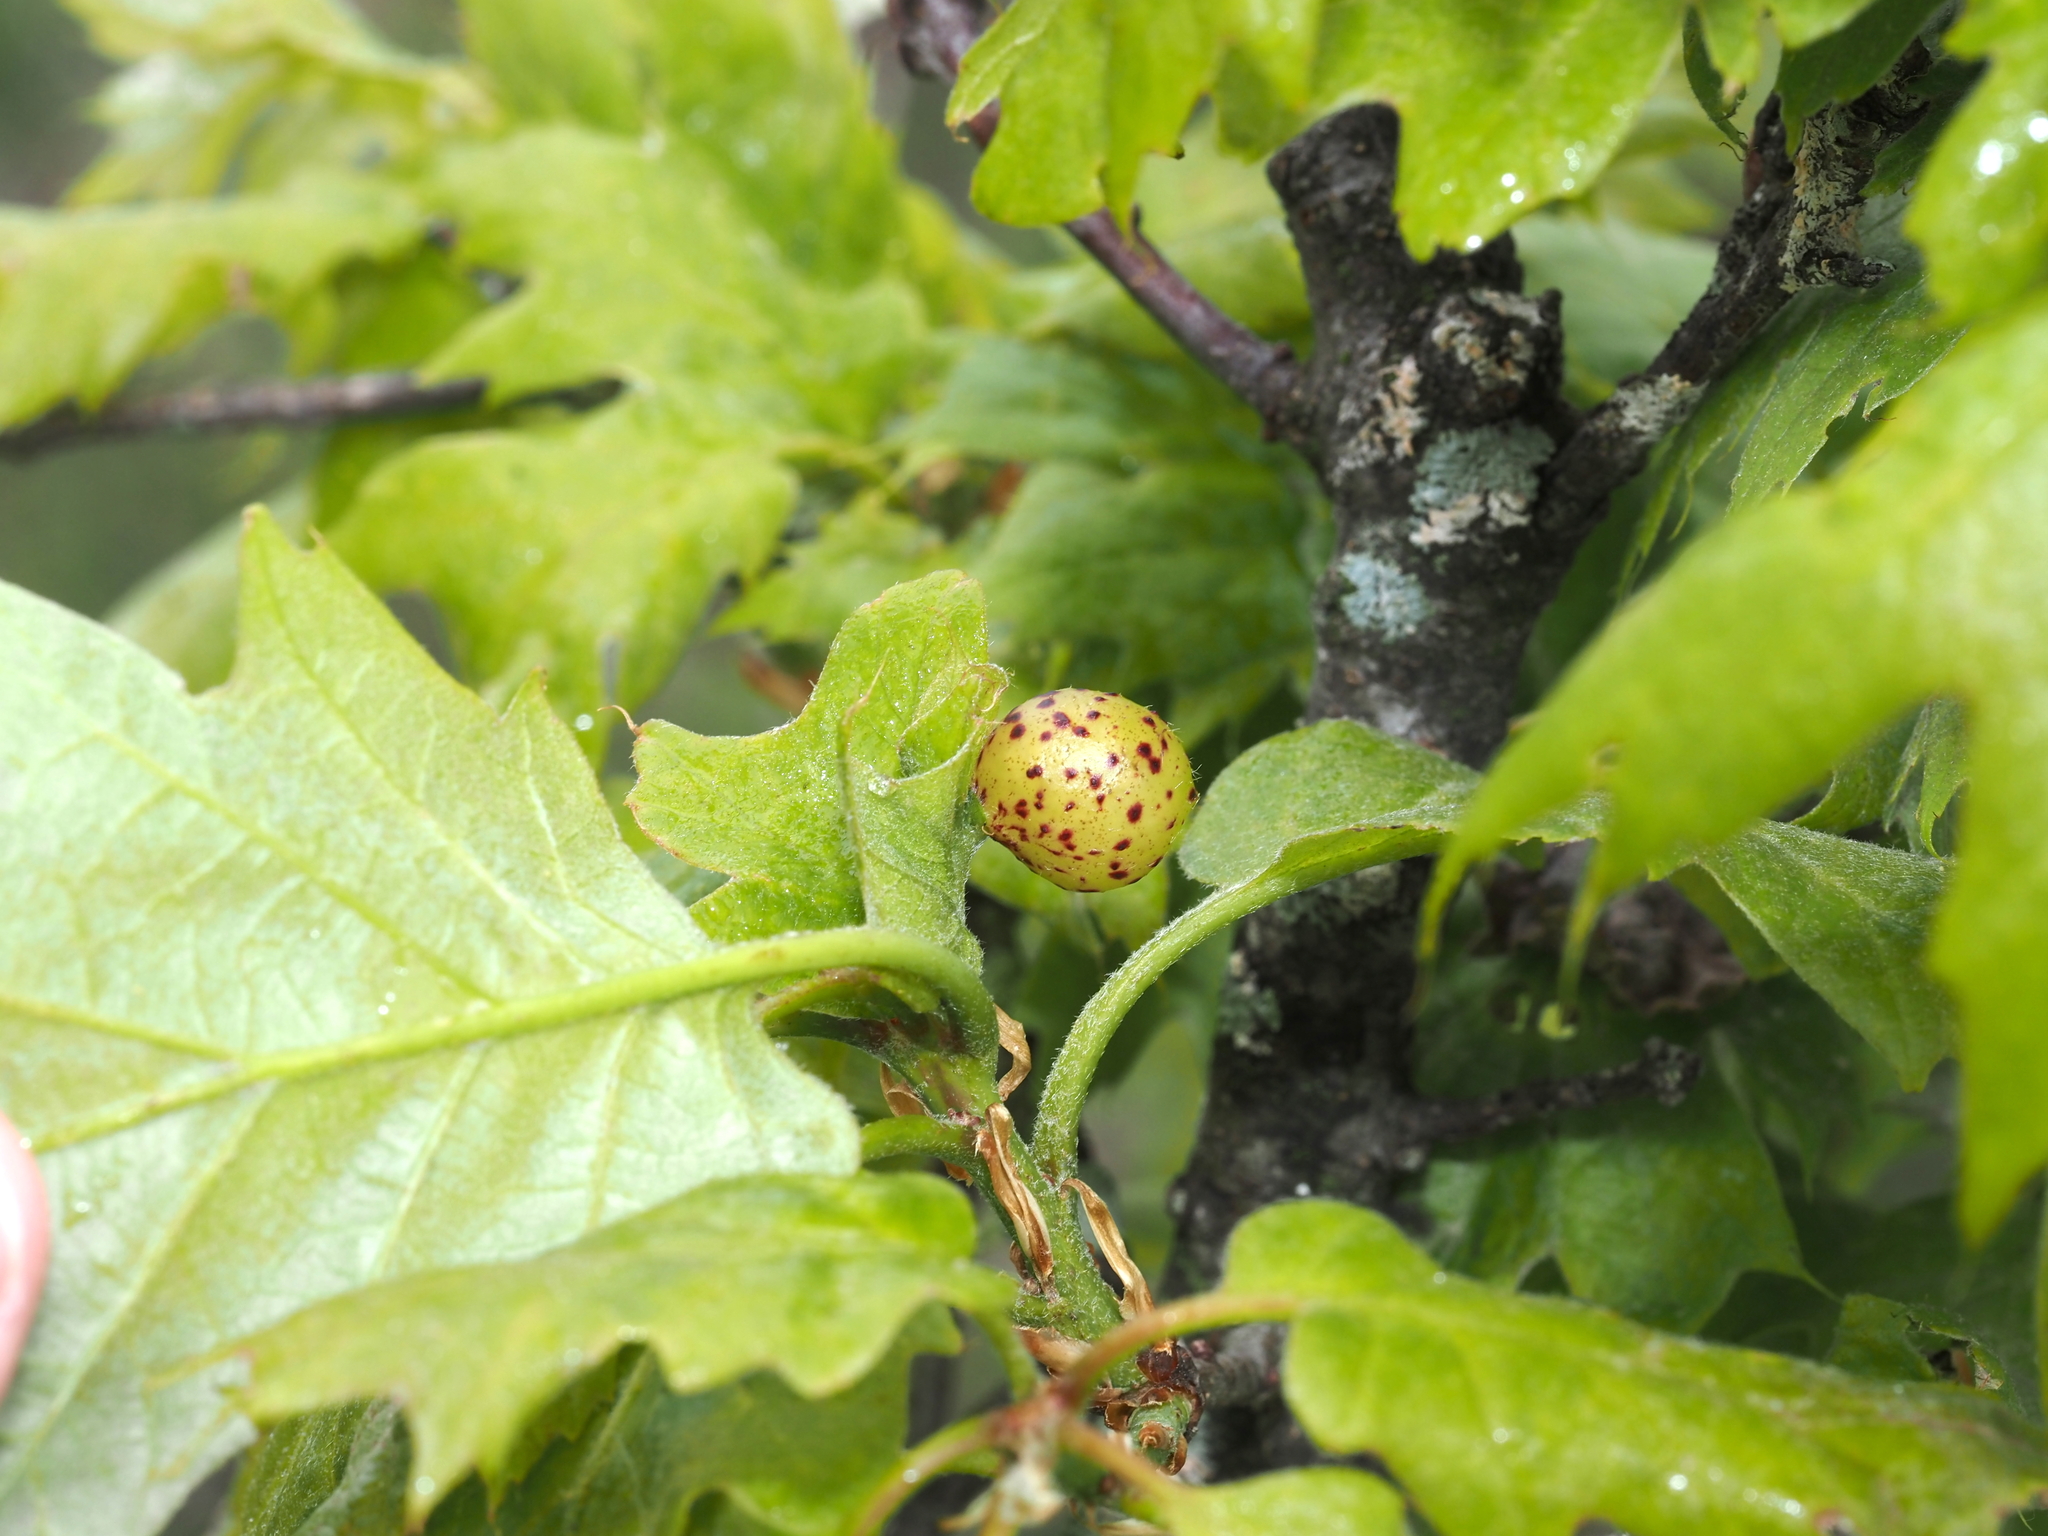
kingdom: Animalia
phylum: Arthropoda
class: Insecta
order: Hymenoptera
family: Cynipidae
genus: Amphibolips
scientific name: Amphibolips
